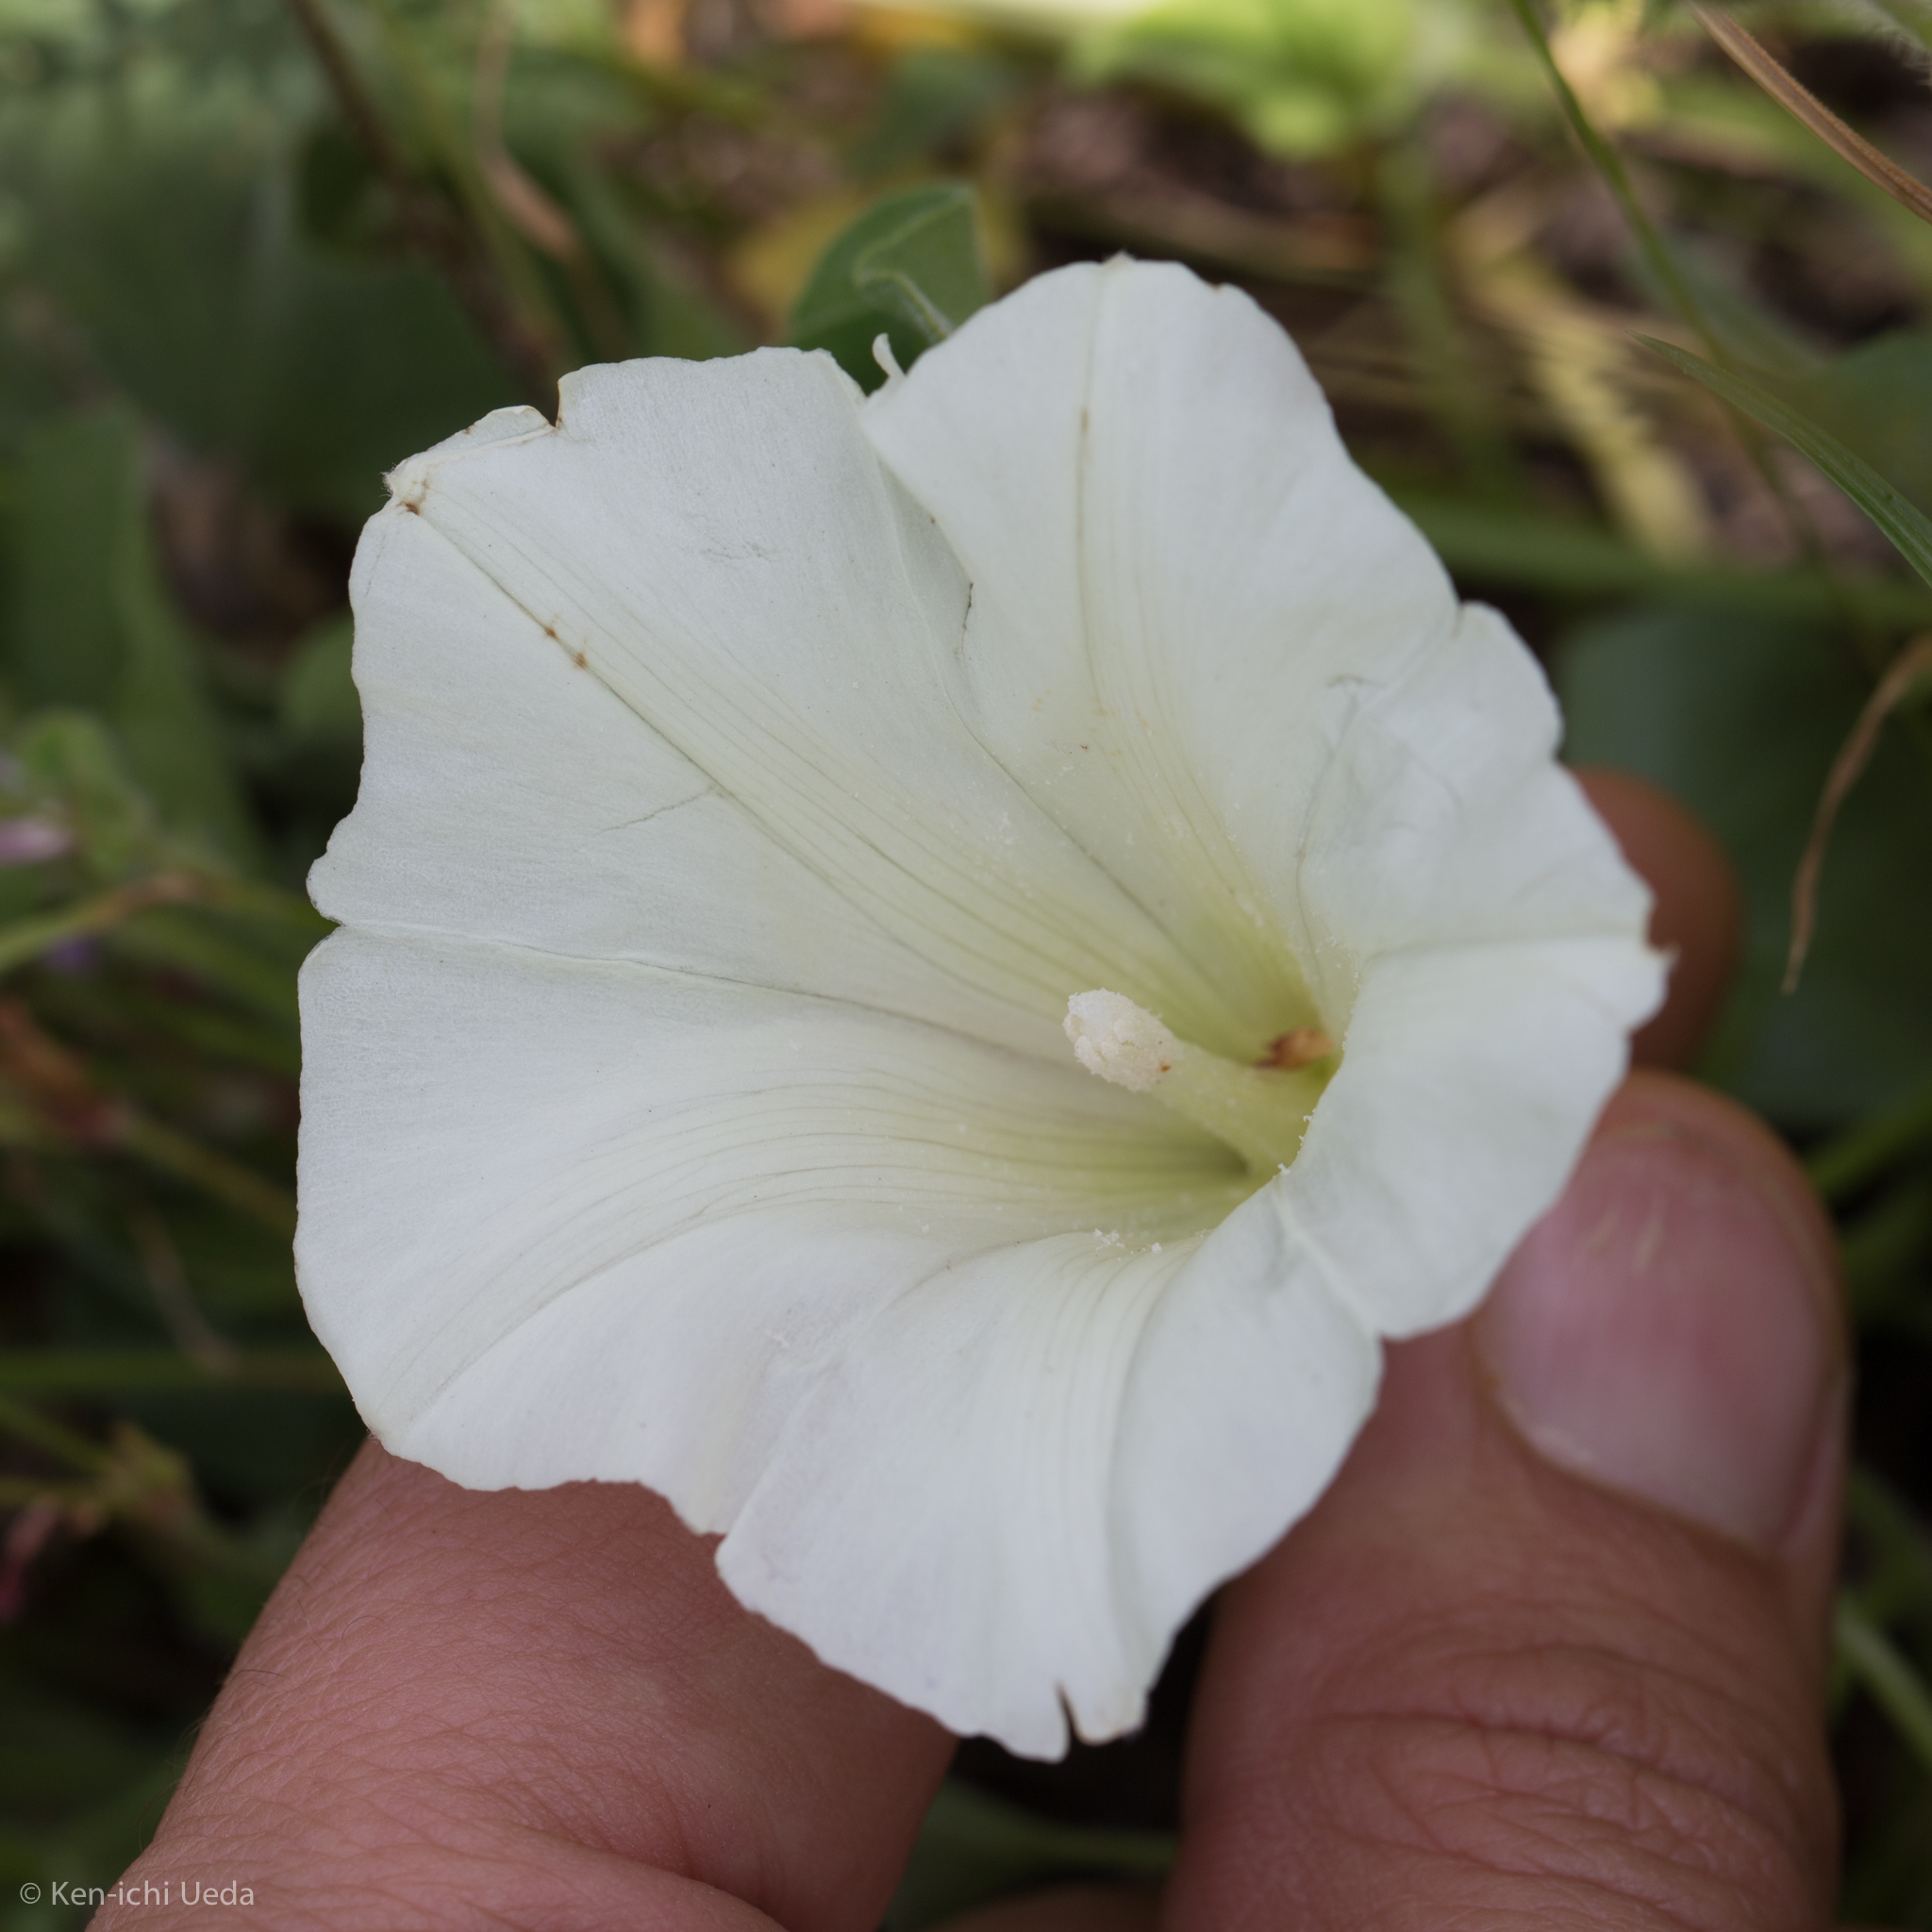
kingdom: Plantae
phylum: Tracheophyta
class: Magnoliopsida
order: Solanales
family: Convolvulaceae
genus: Calystegia
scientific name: Calystegia subacaulis
